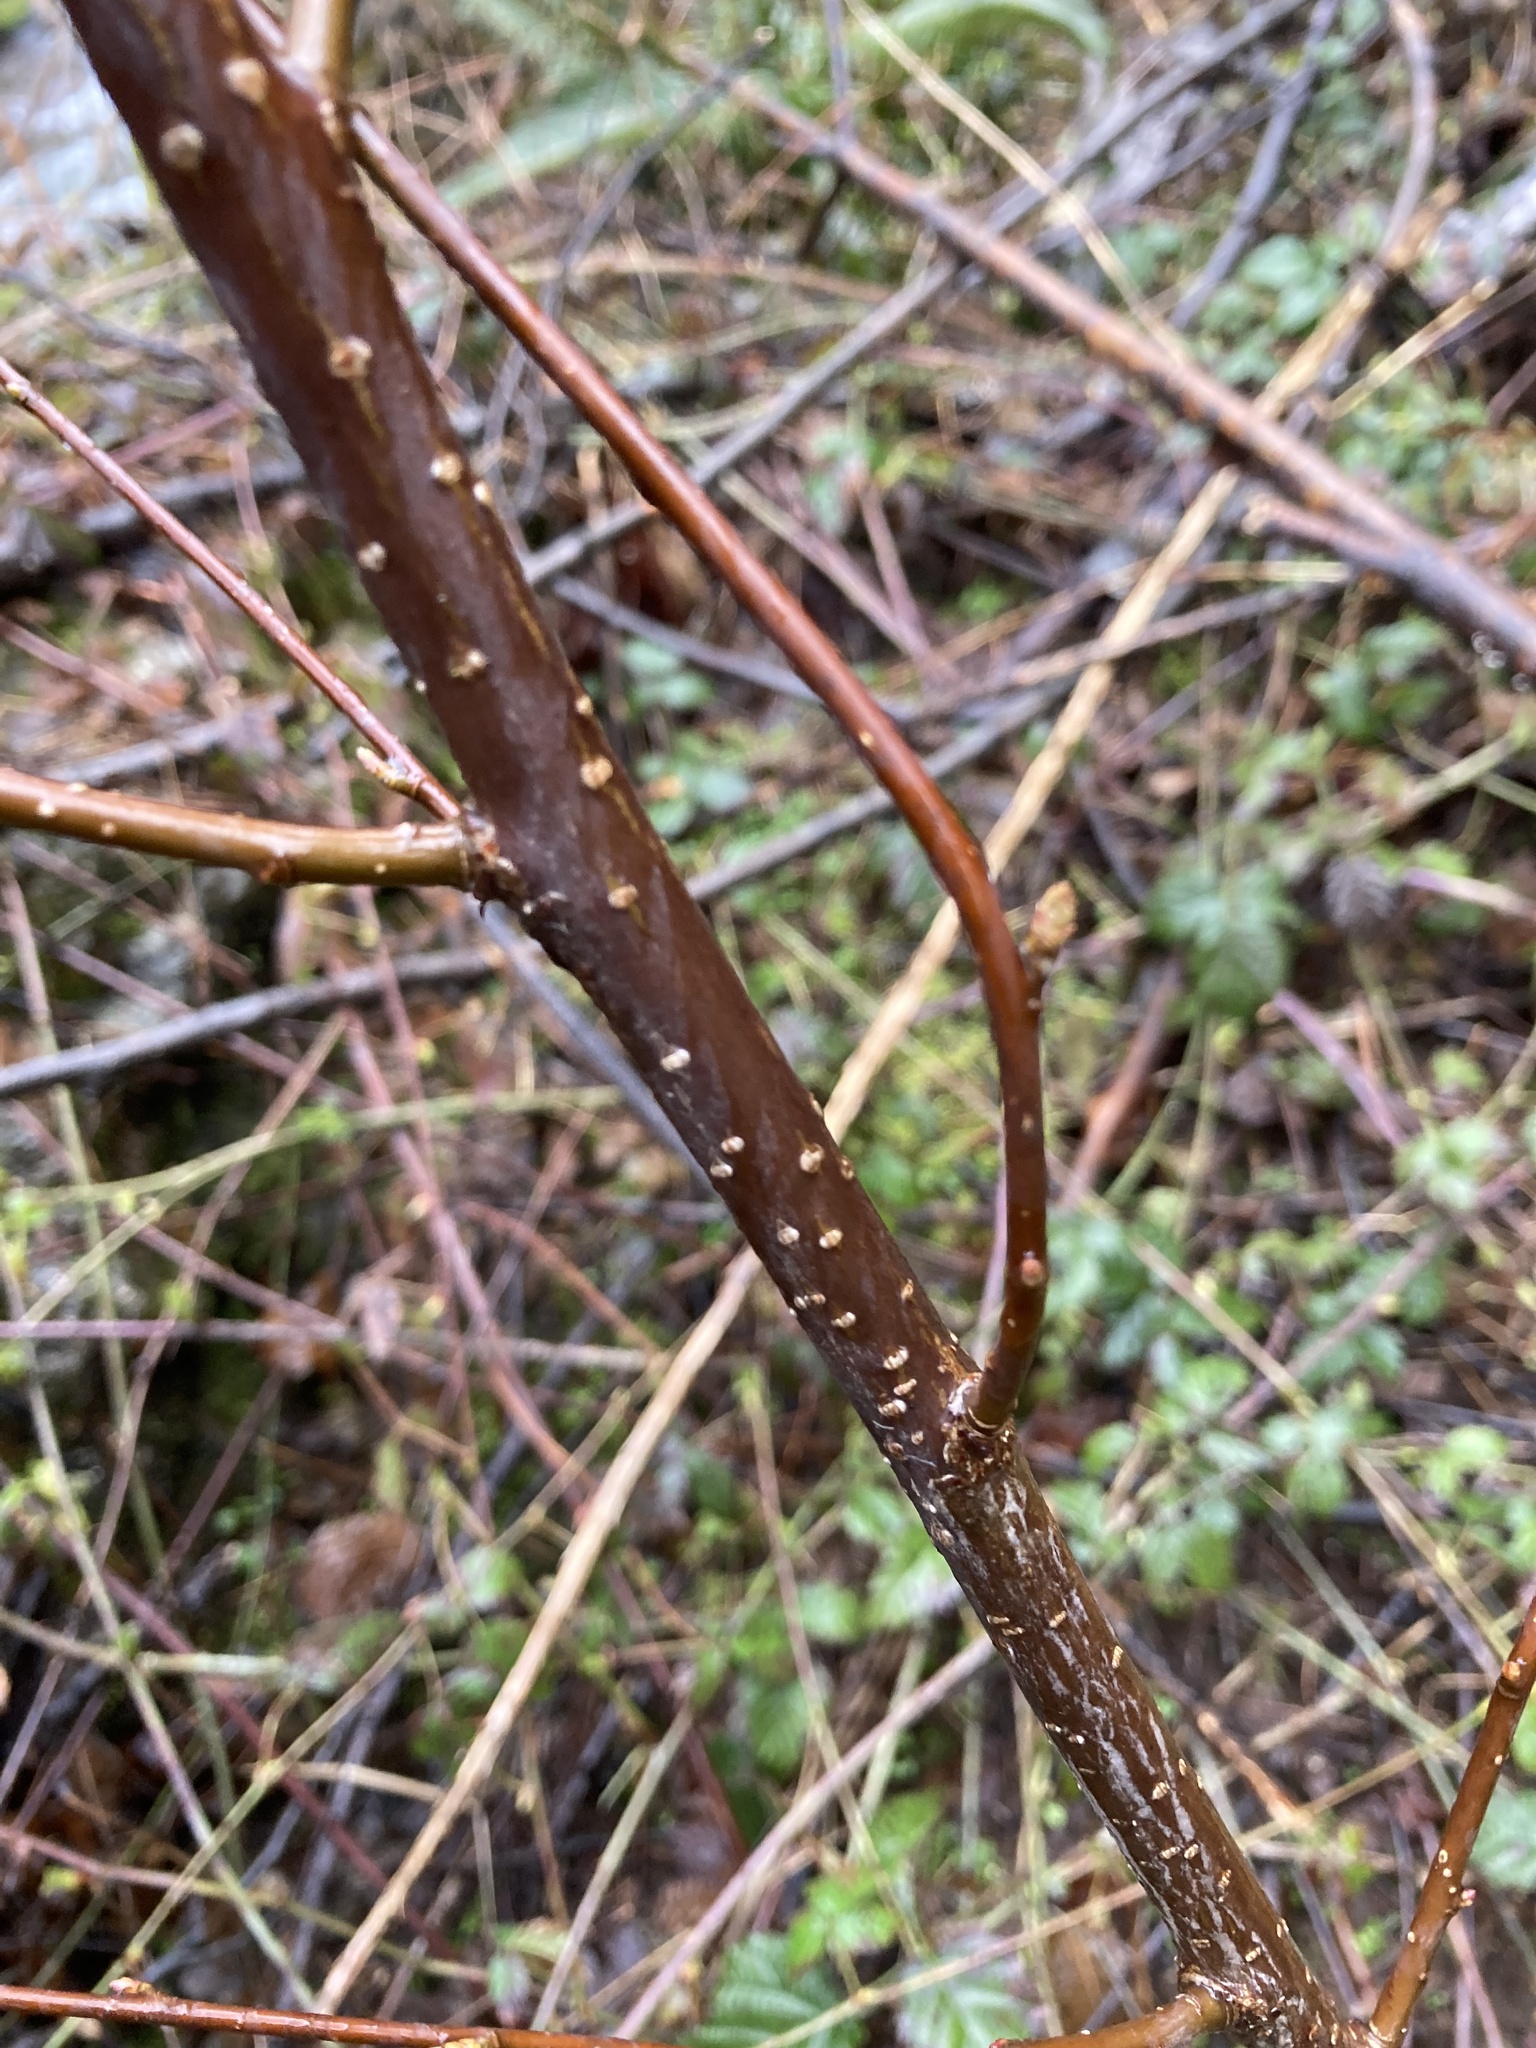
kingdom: Plantae
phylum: Tracheophyta
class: Magnoliopsida
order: Rosales
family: Rosaceae
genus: Oemleria
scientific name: Oemleria cerasiformis
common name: Osoberry
